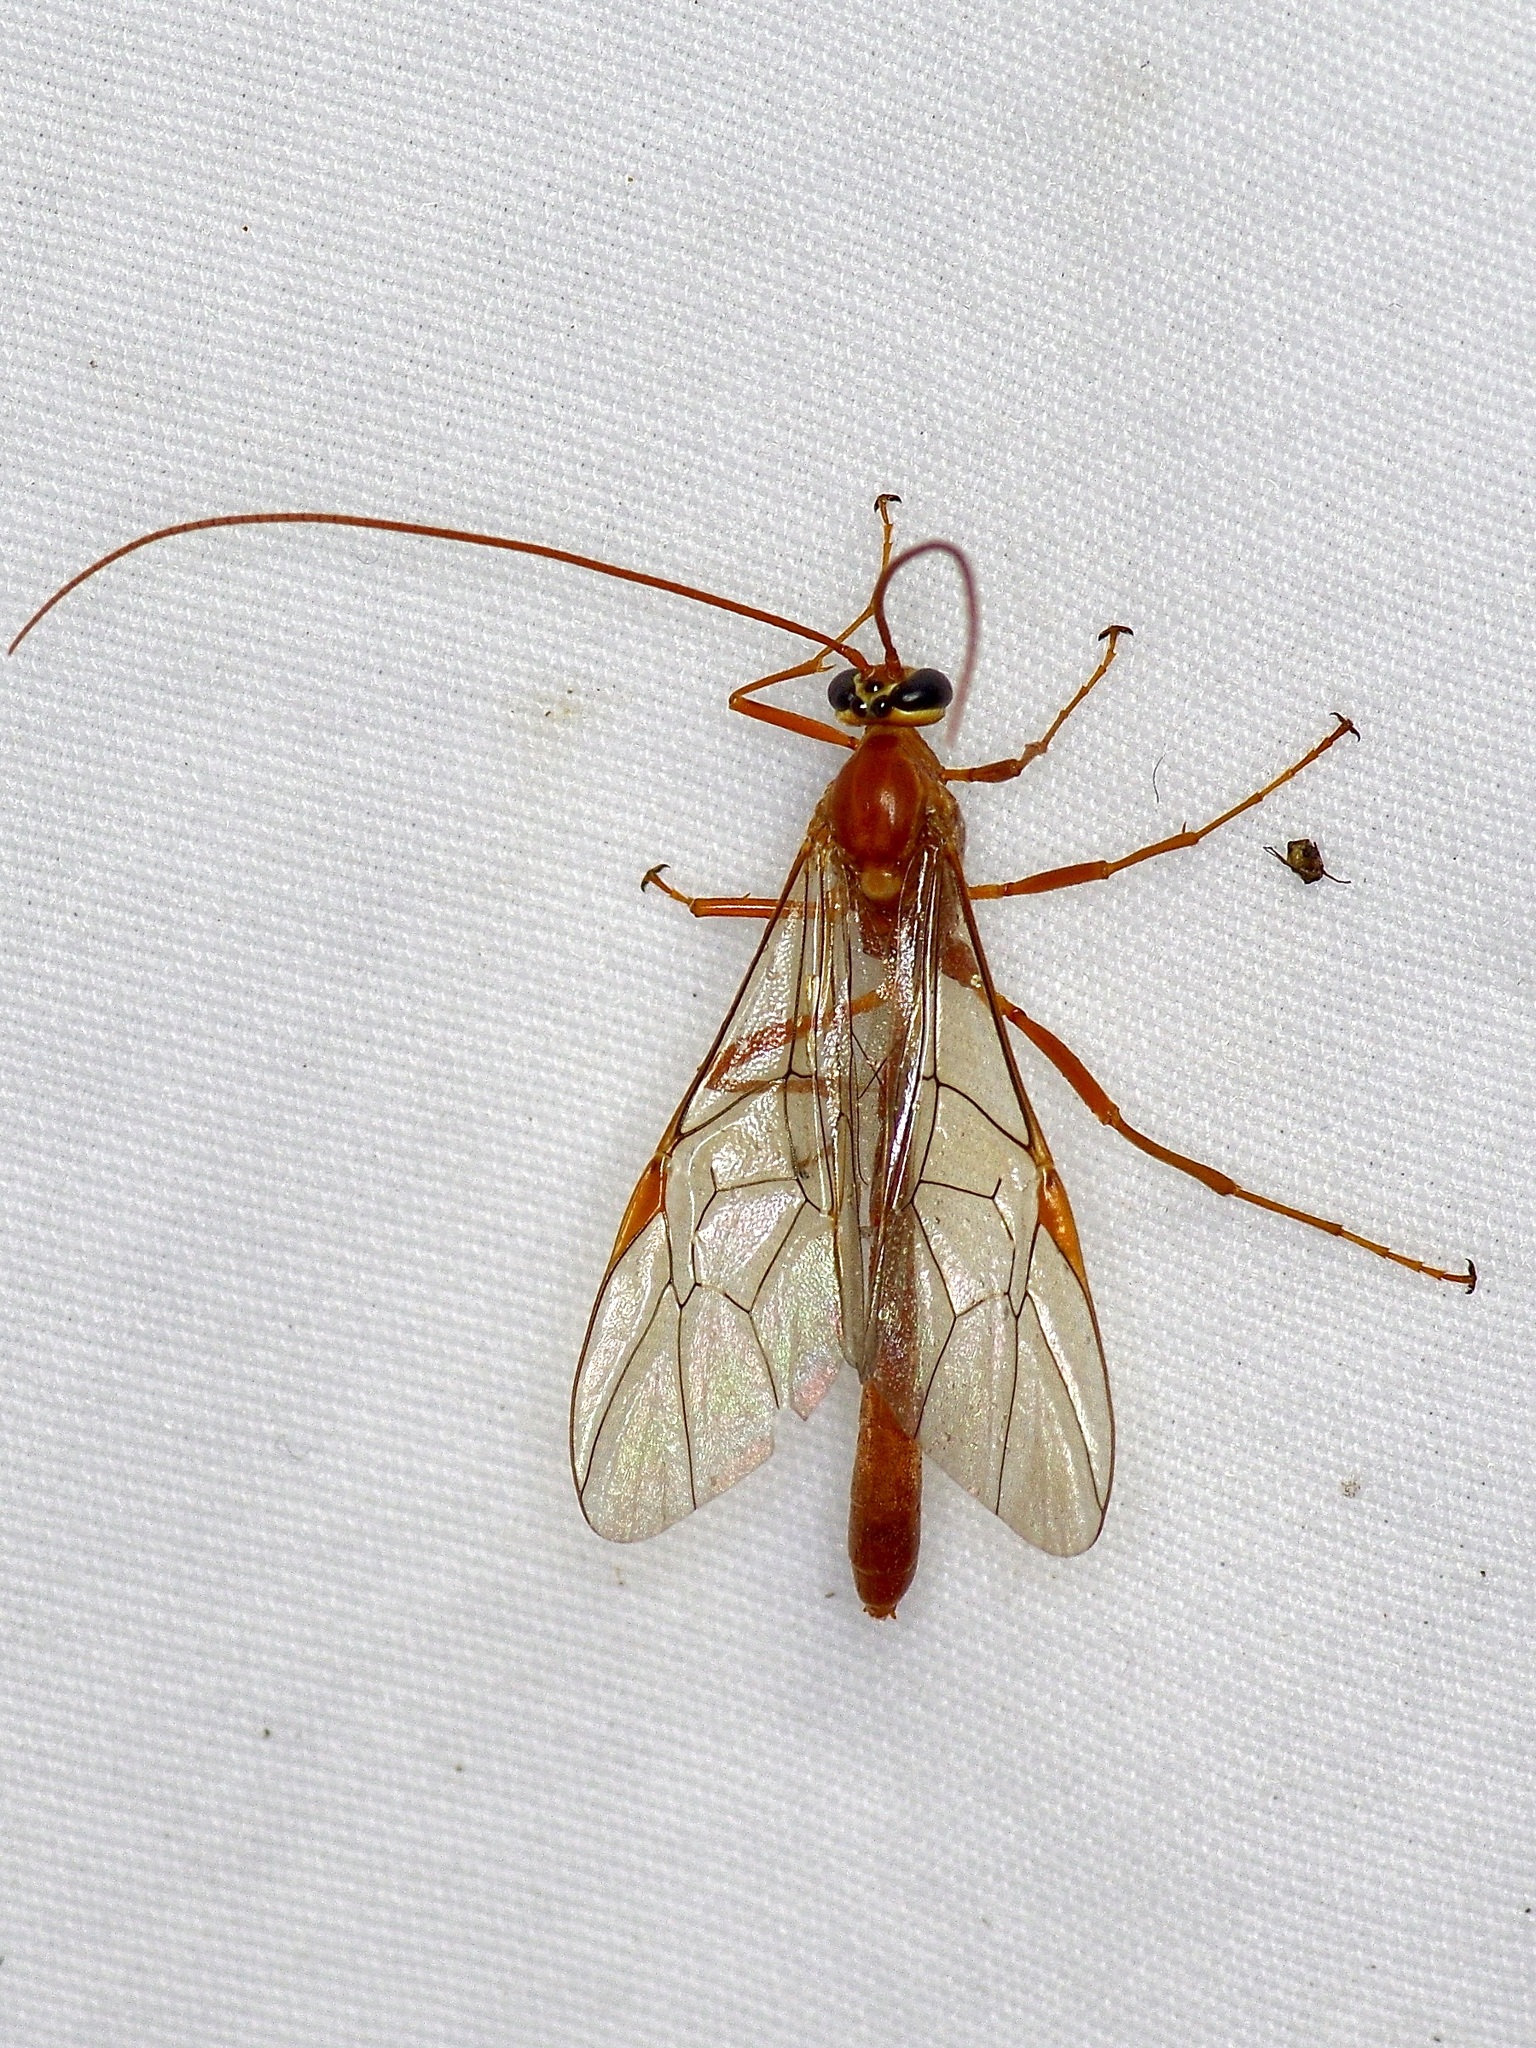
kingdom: Animalia
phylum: Arthropoda
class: Insecta
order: Hymenoptera
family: Ichneumonidae
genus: Ophion
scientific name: Ophion
